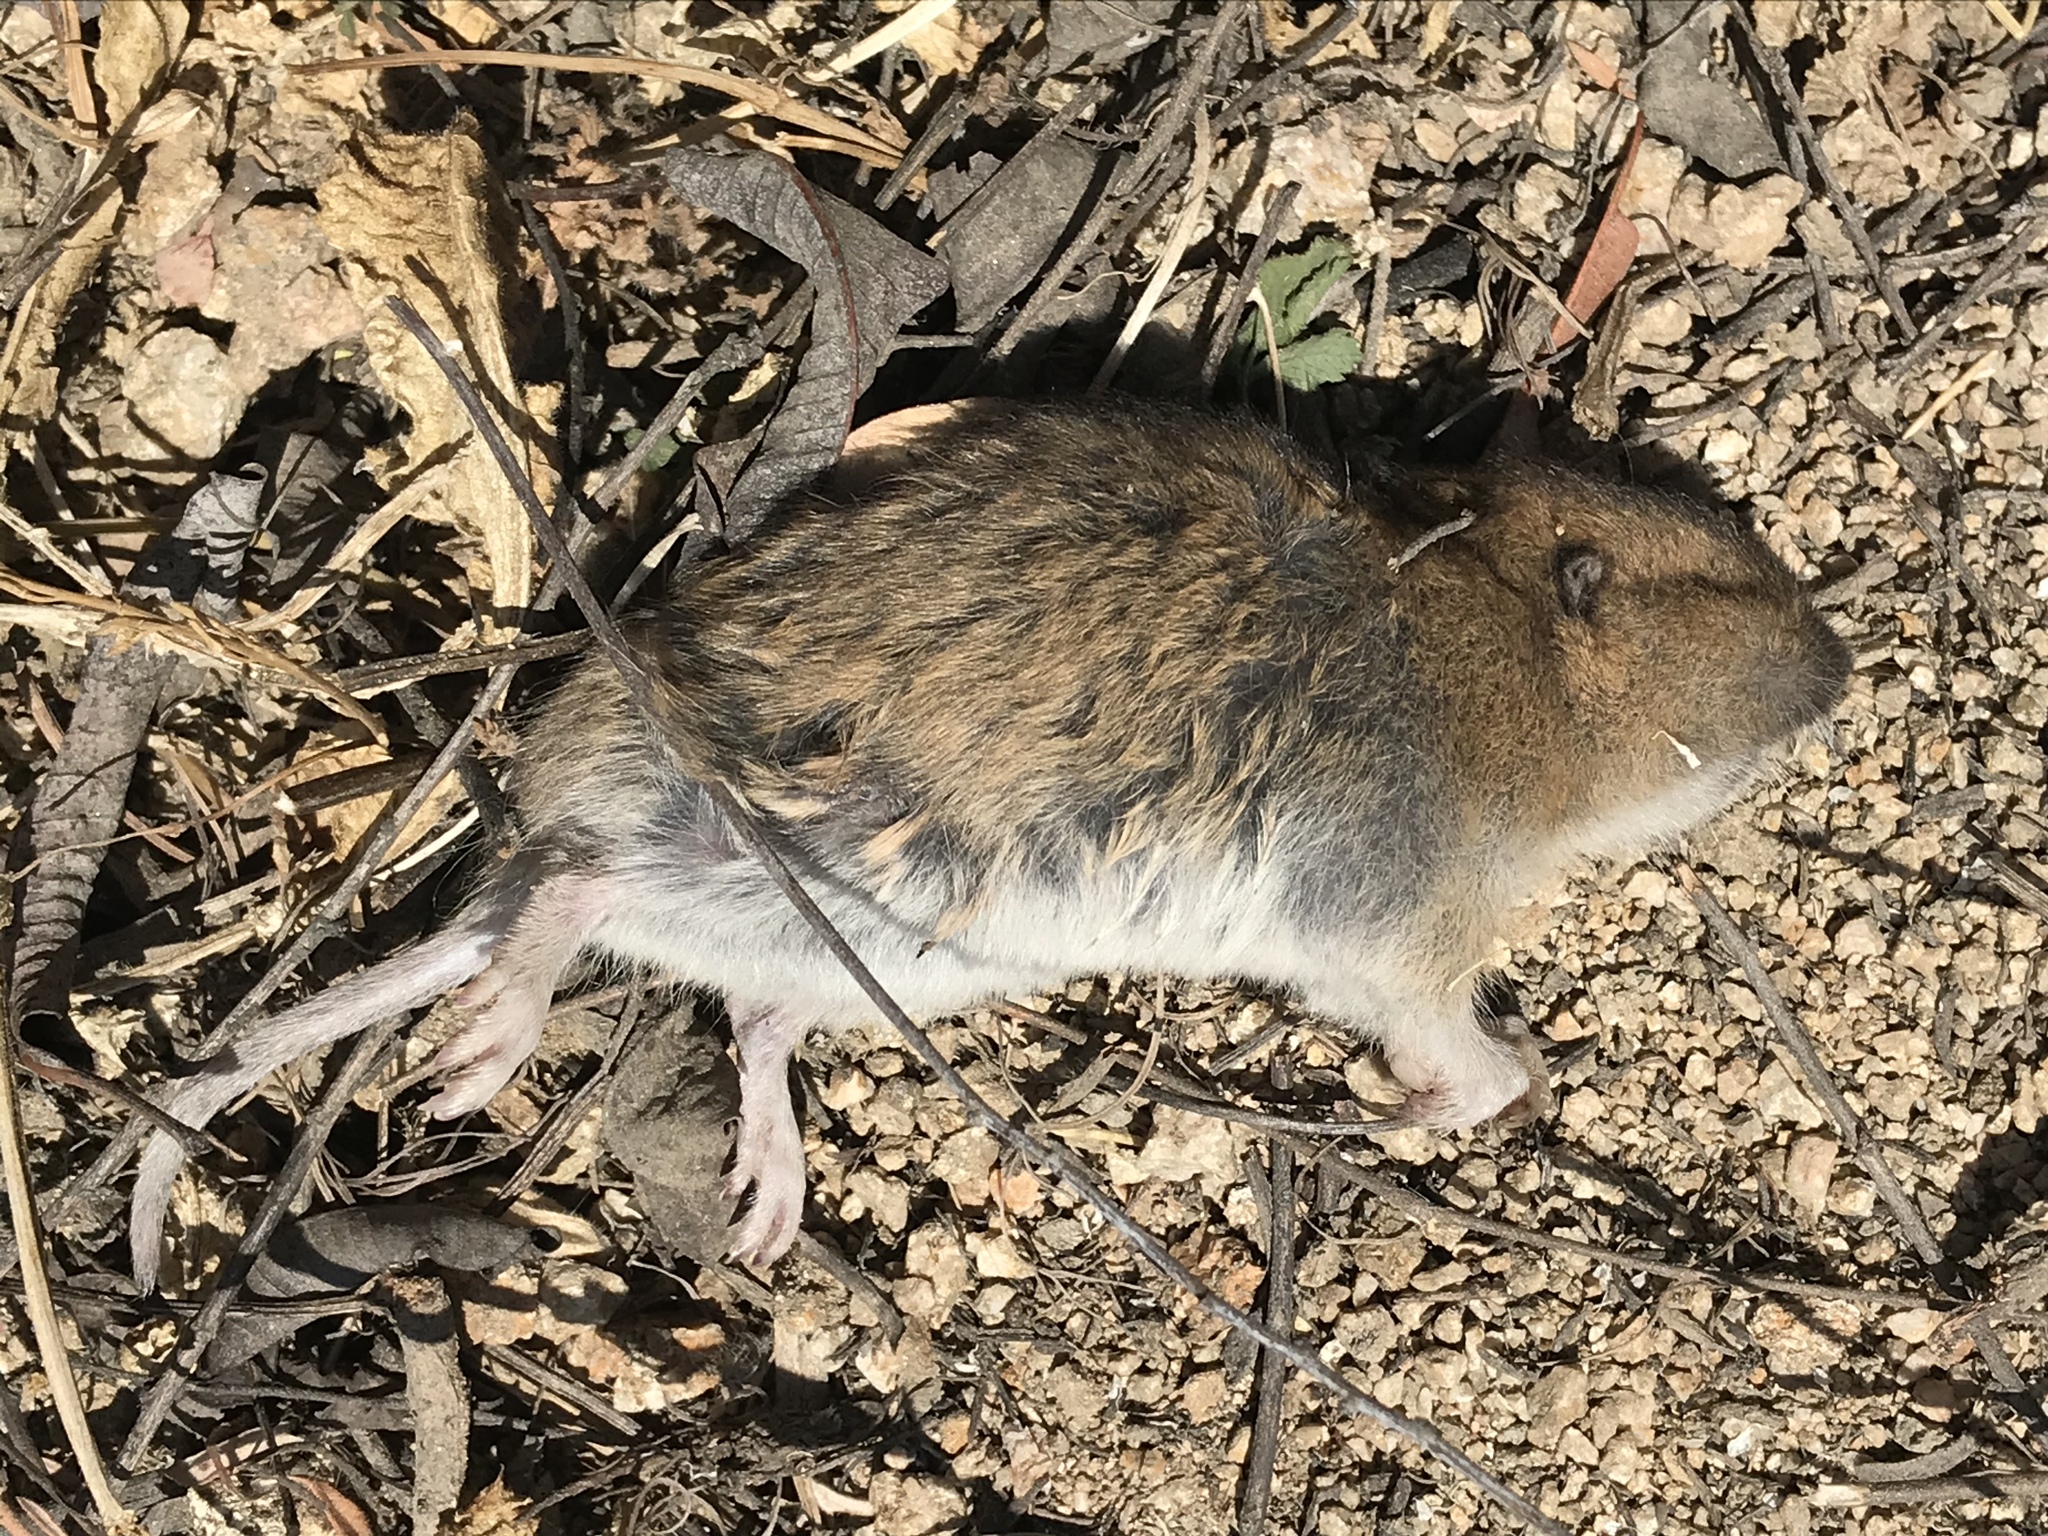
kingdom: Animalia
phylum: Chordata
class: Mammalia
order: Rodentia
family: Geomyidae
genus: Thomomys
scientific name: Thomomys bottae
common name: Botta's pocket gopher
